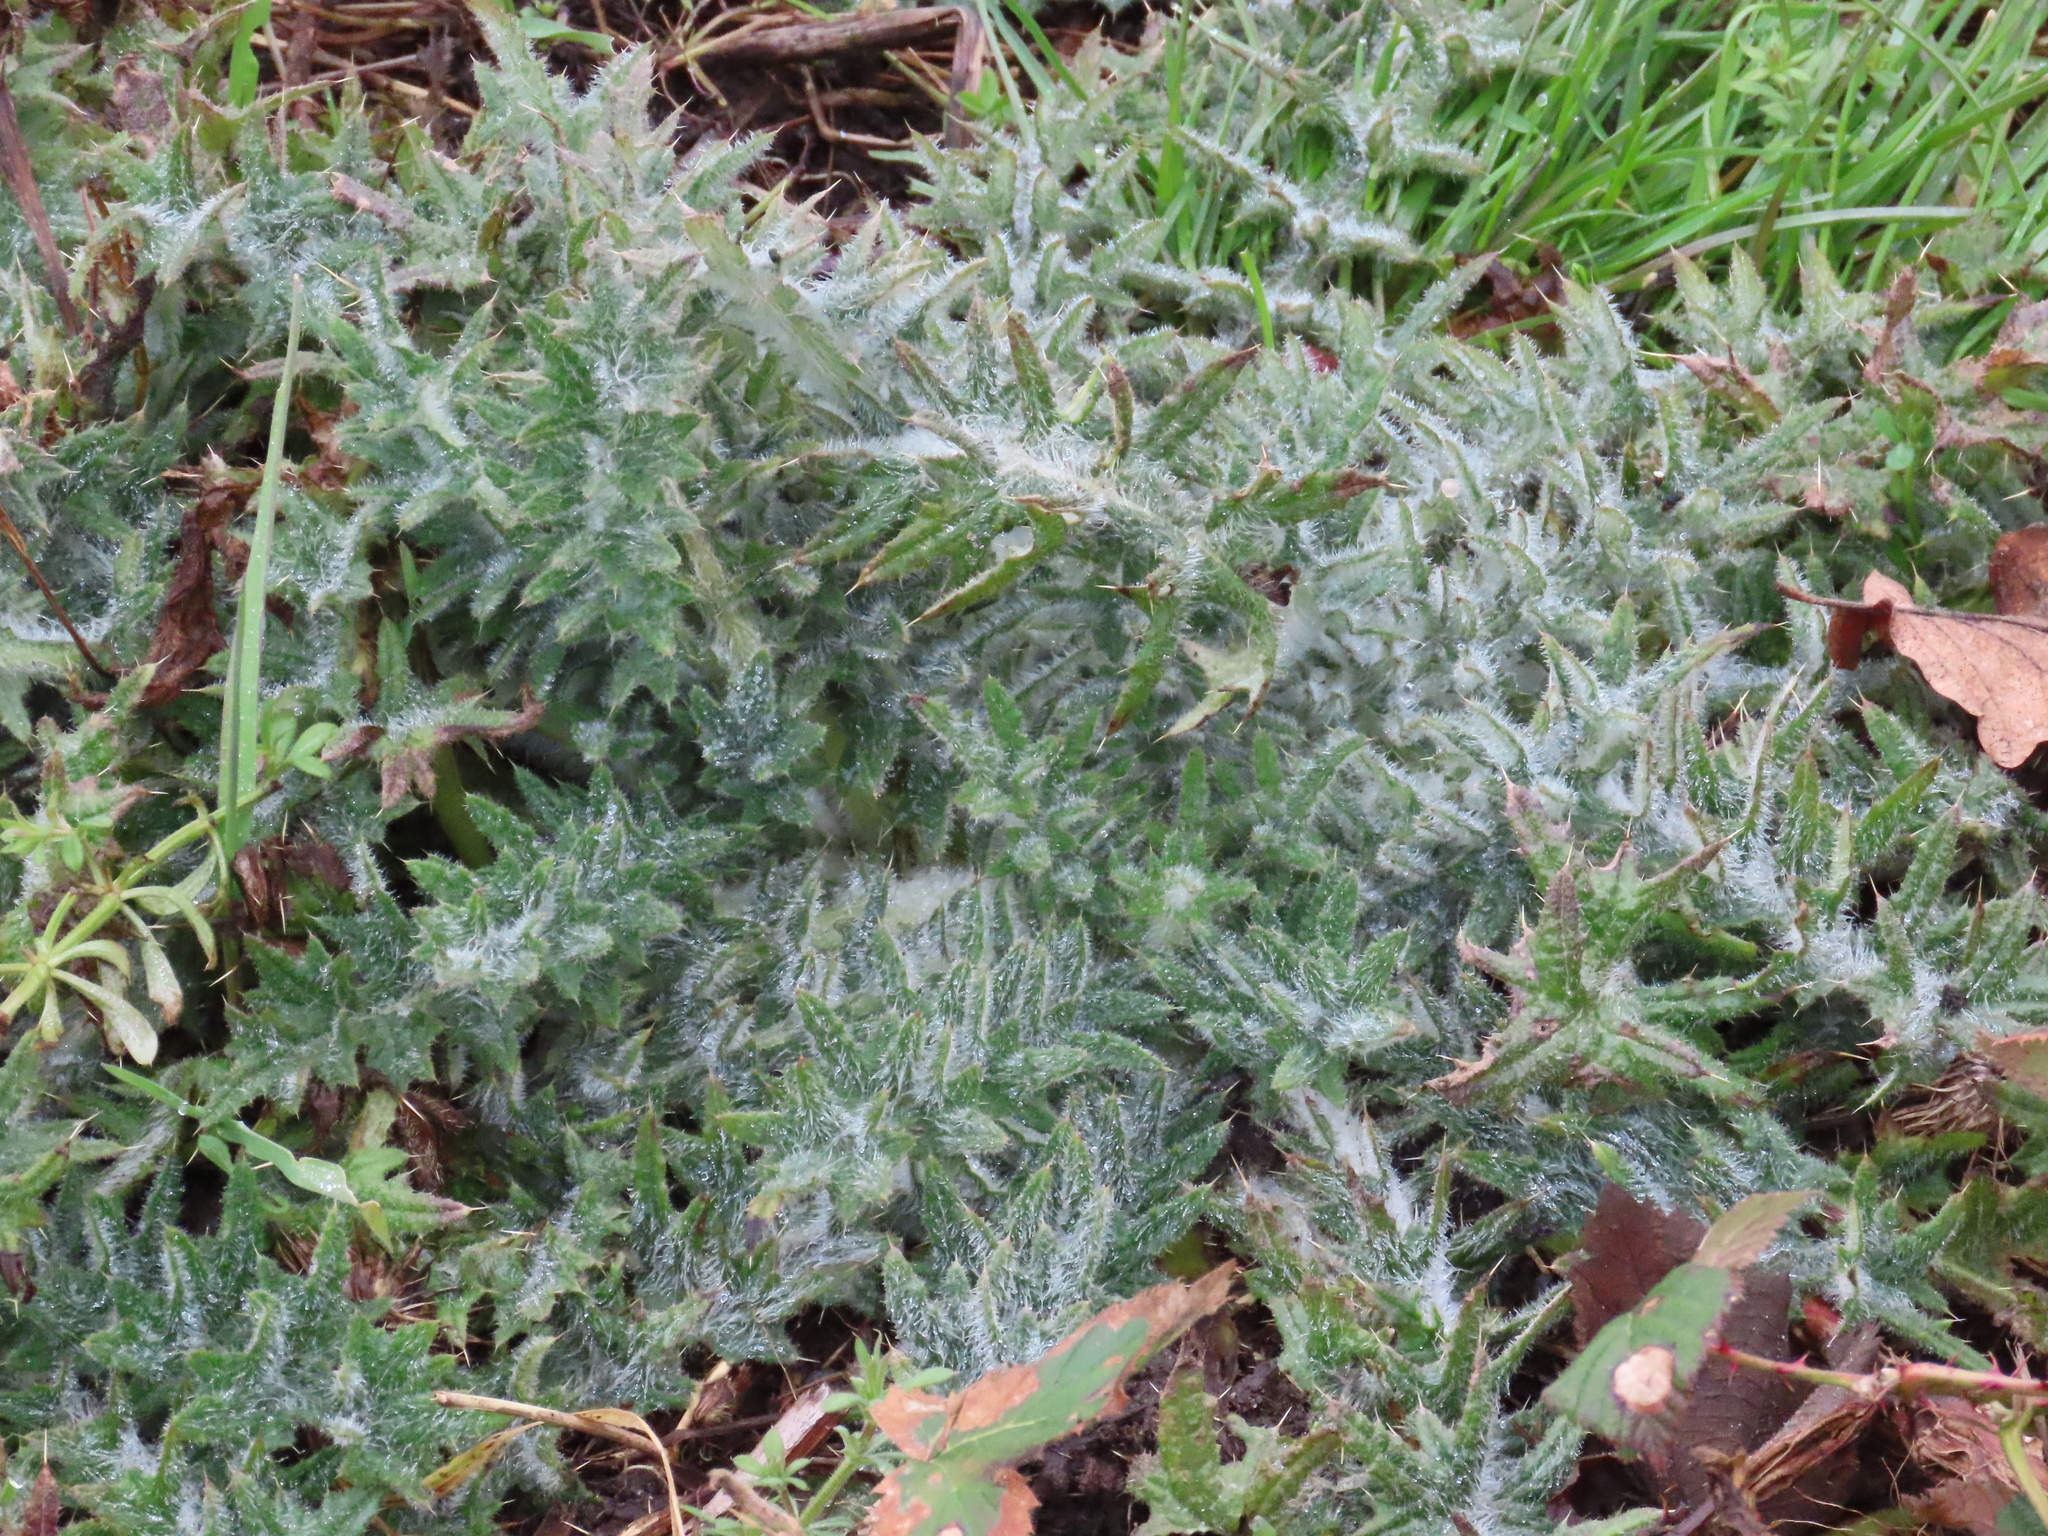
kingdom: Plantae
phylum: Tracheophyta
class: Magnoliopsida
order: Asterales
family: Asteraceae
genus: Cirsium
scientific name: Cirsium vulgare
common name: Bull thistle
